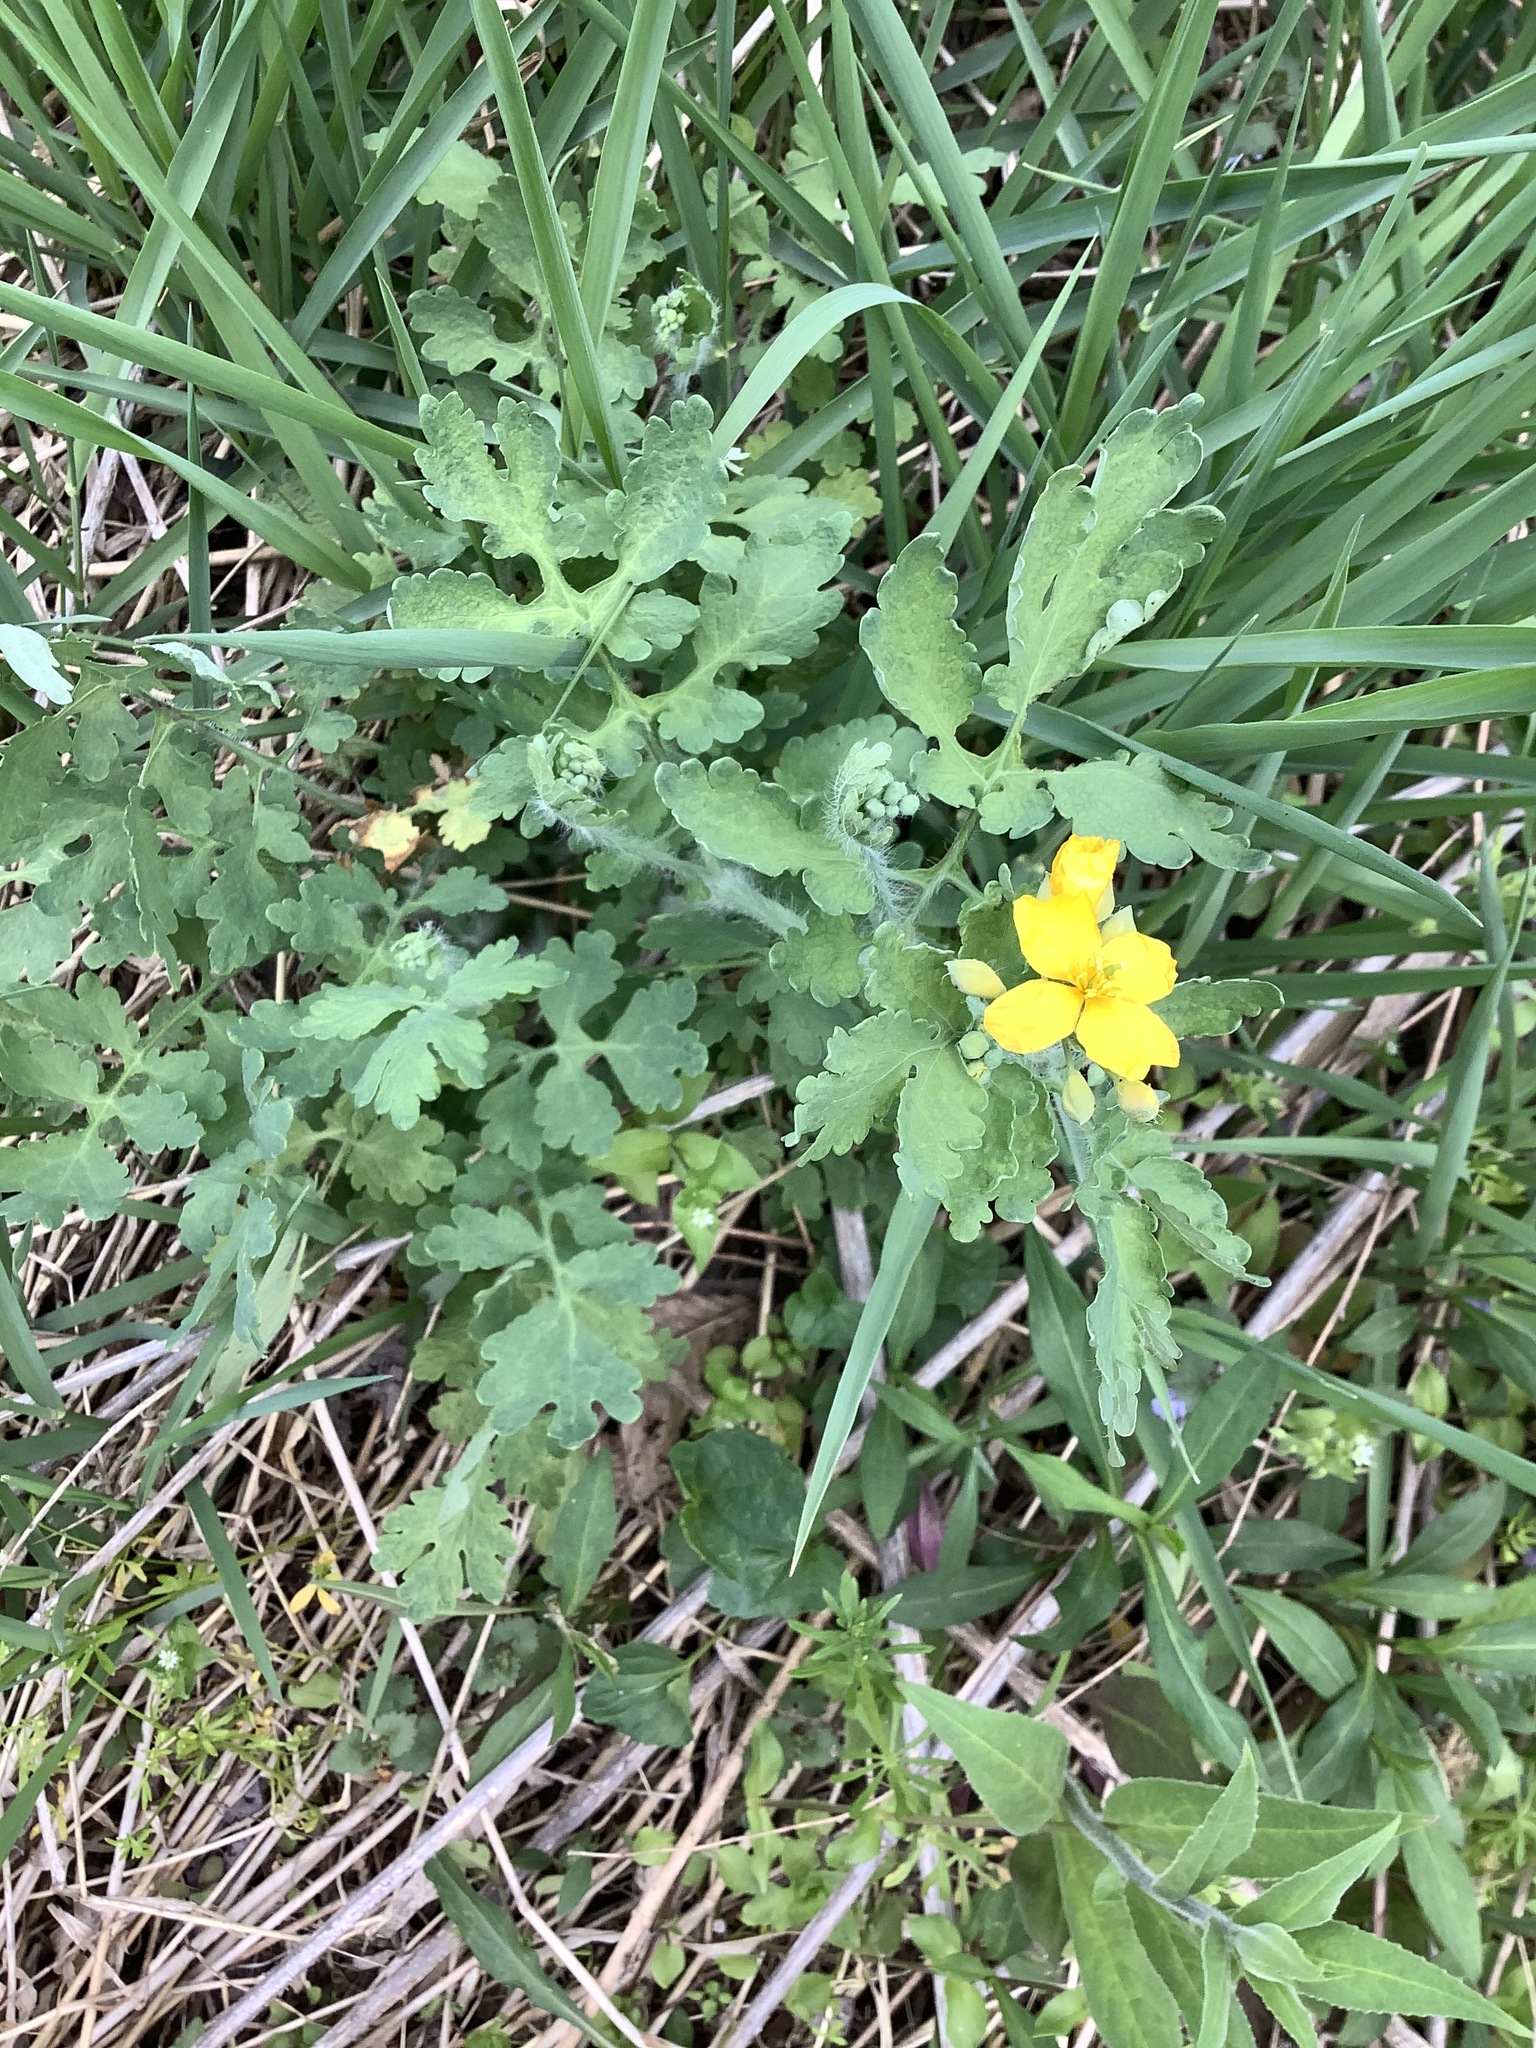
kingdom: Plantae
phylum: Tracheophyta
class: Magnoliopsida
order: Ranunculales
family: Papaveraceae
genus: Chelidonium
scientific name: Chelidonium majus
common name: Greater celandine
